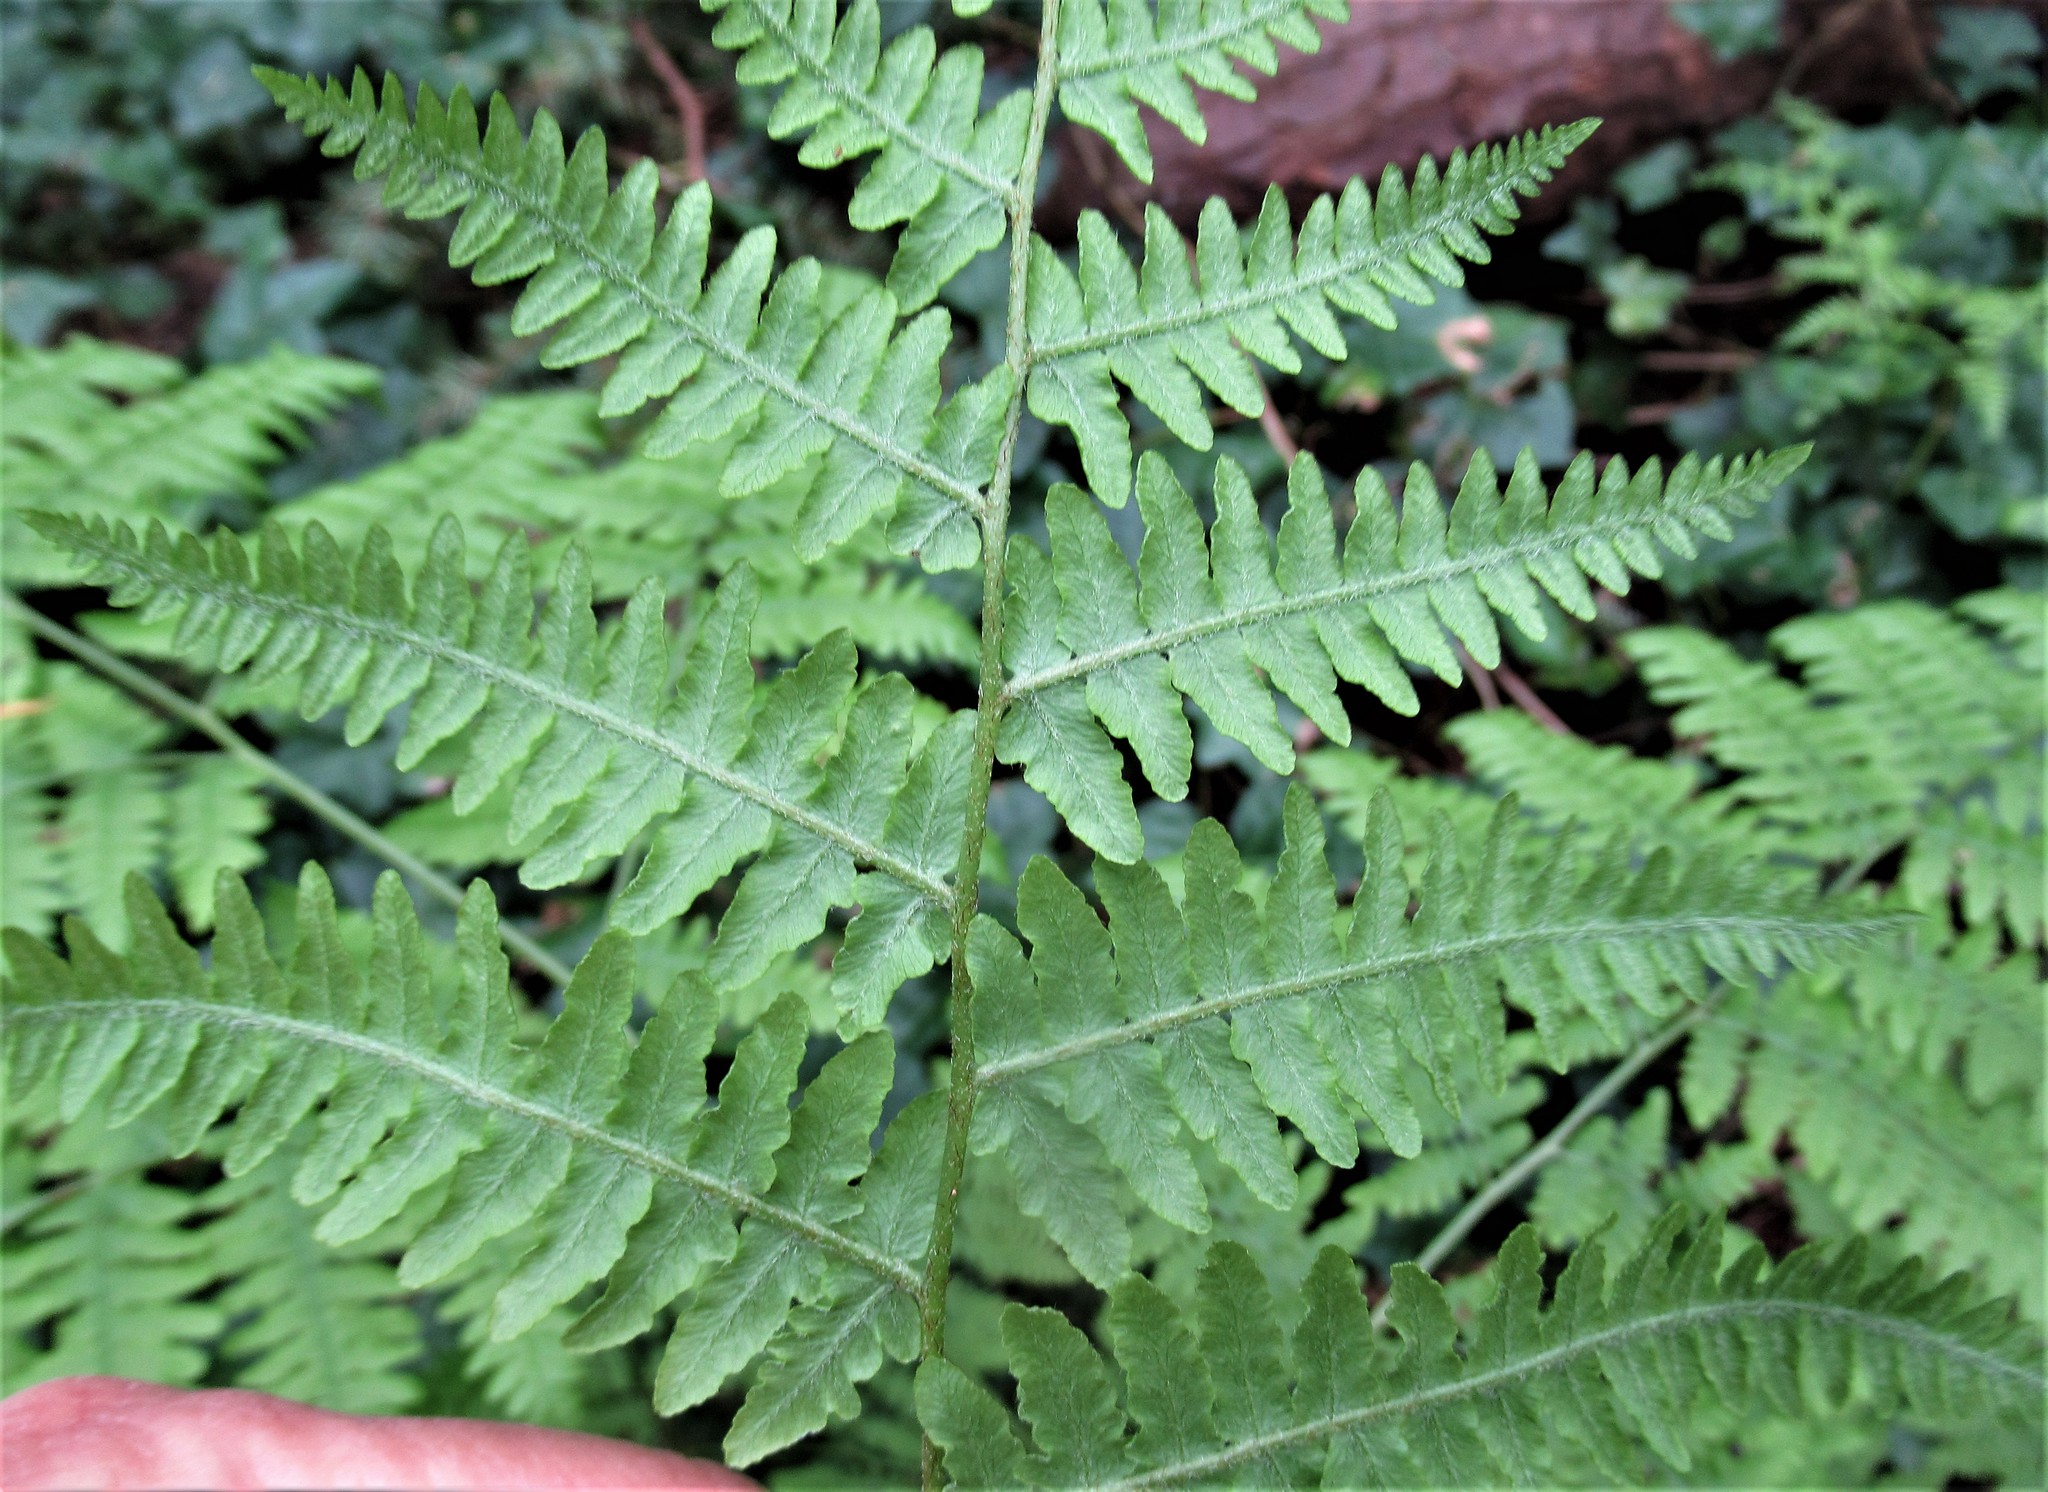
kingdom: Plantae
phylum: Tracheophyta
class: Polypodiopsida
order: Polypodiales
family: Dennstaedtiaceae
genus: Pteridium
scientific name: Pteridium aquilinum
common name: Bracken
